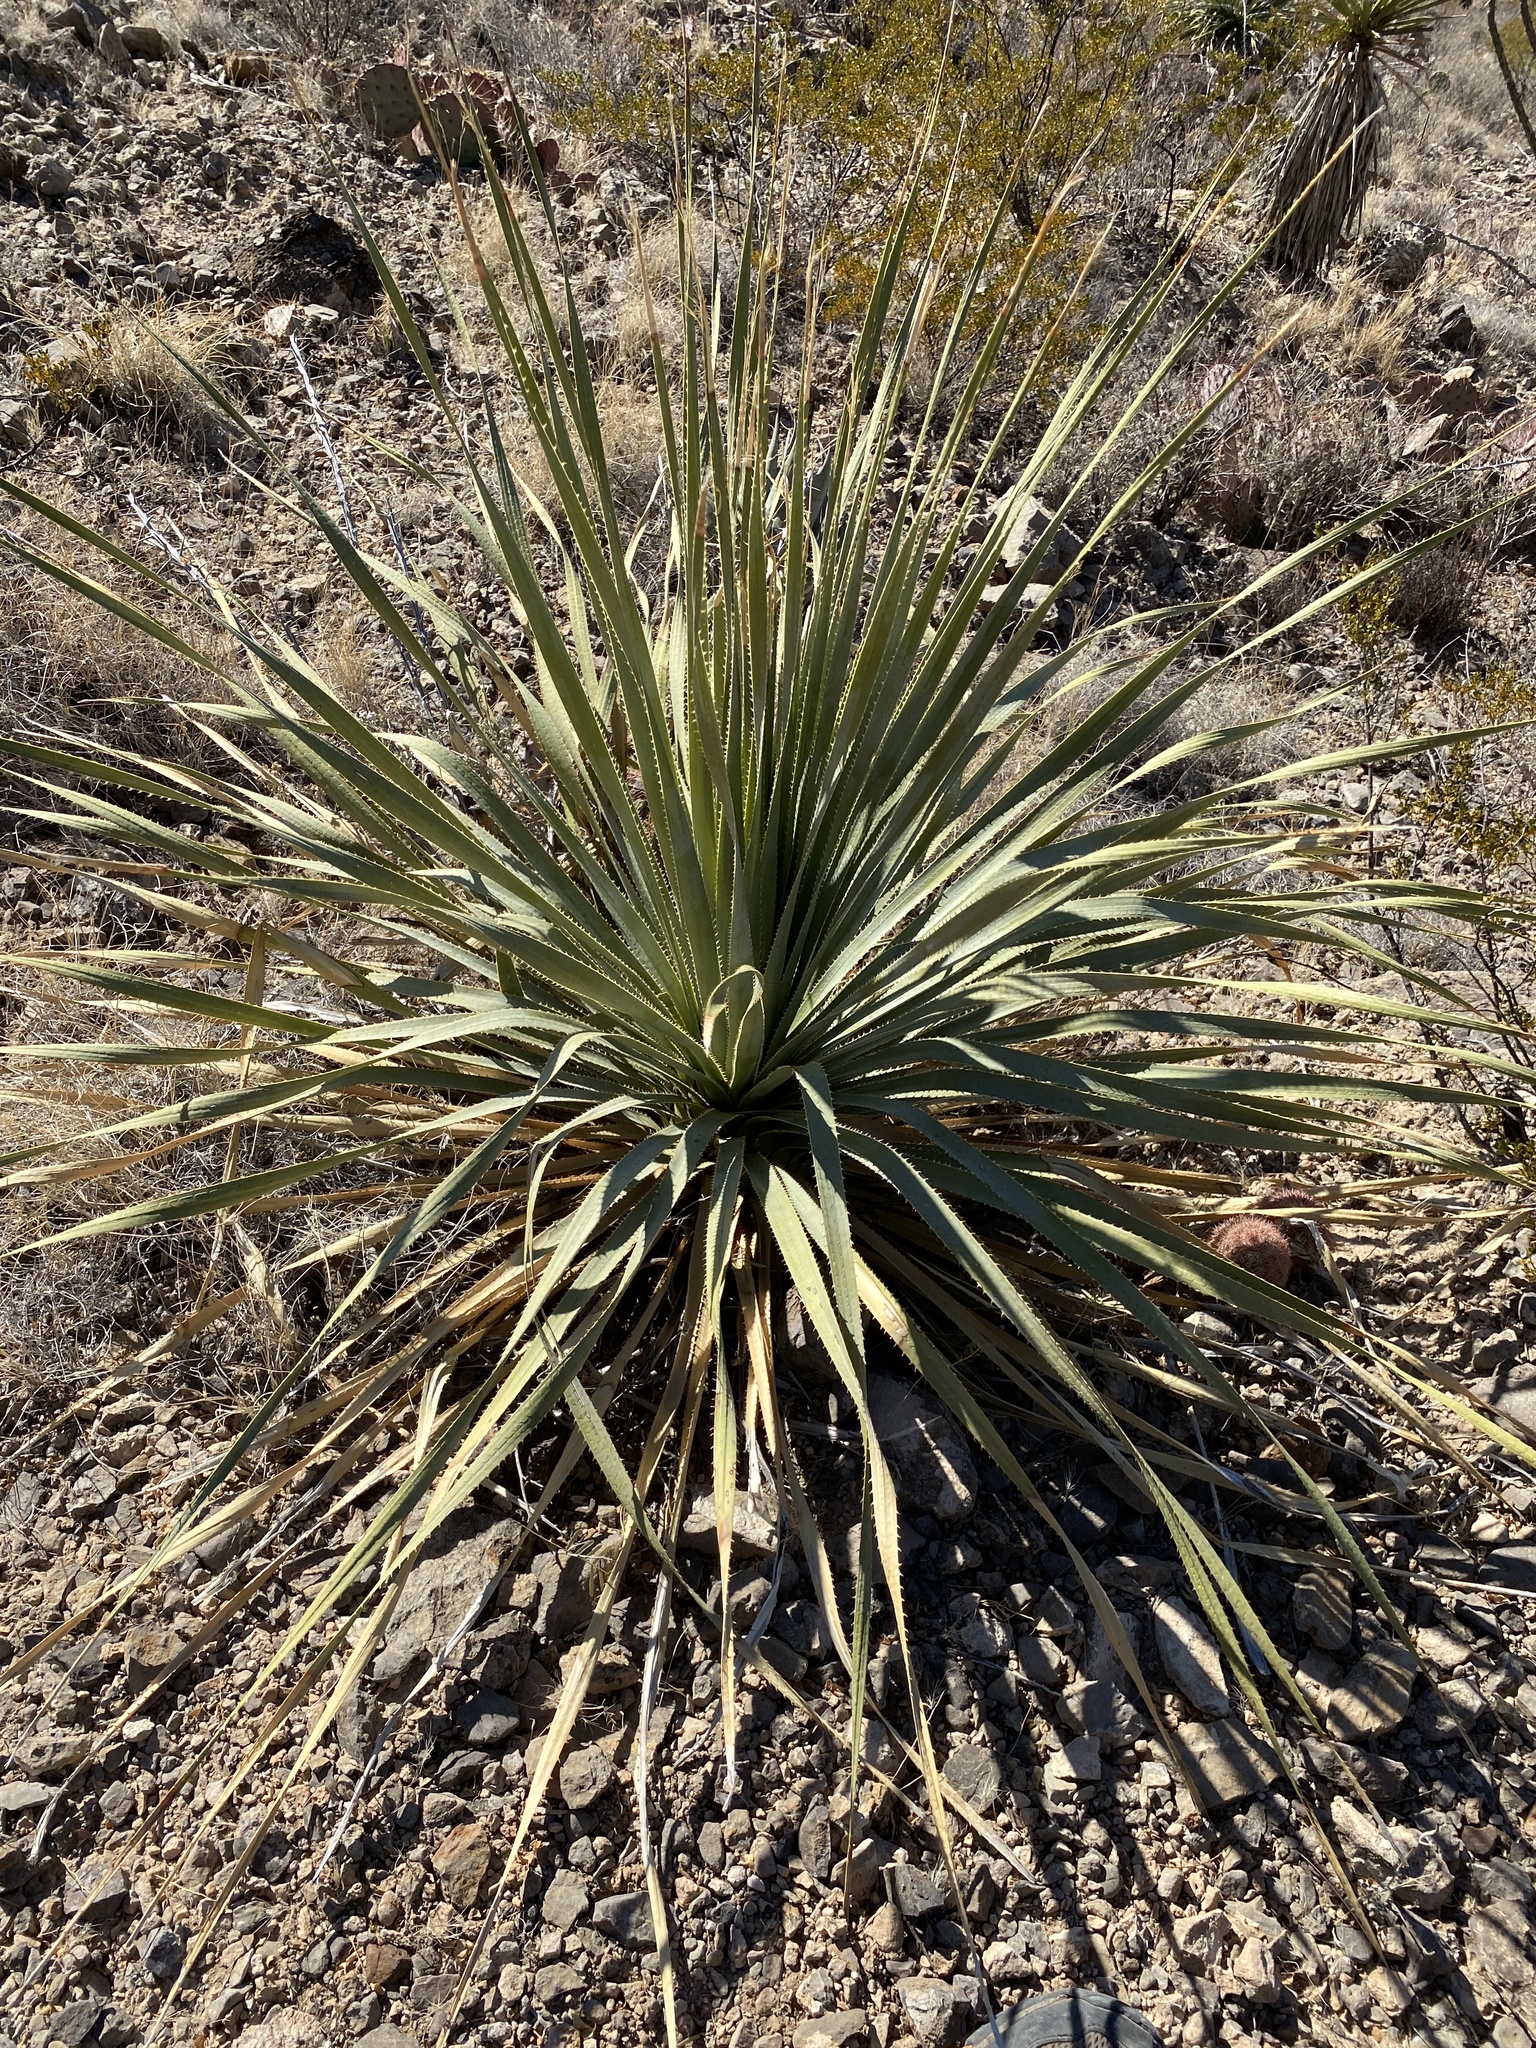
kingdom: Plantae
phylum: Tracheophyta
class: Liliopsida
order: Asparagales
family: Asparagaceae
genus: Dasylirion
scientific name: Dasylirion wheeleri
